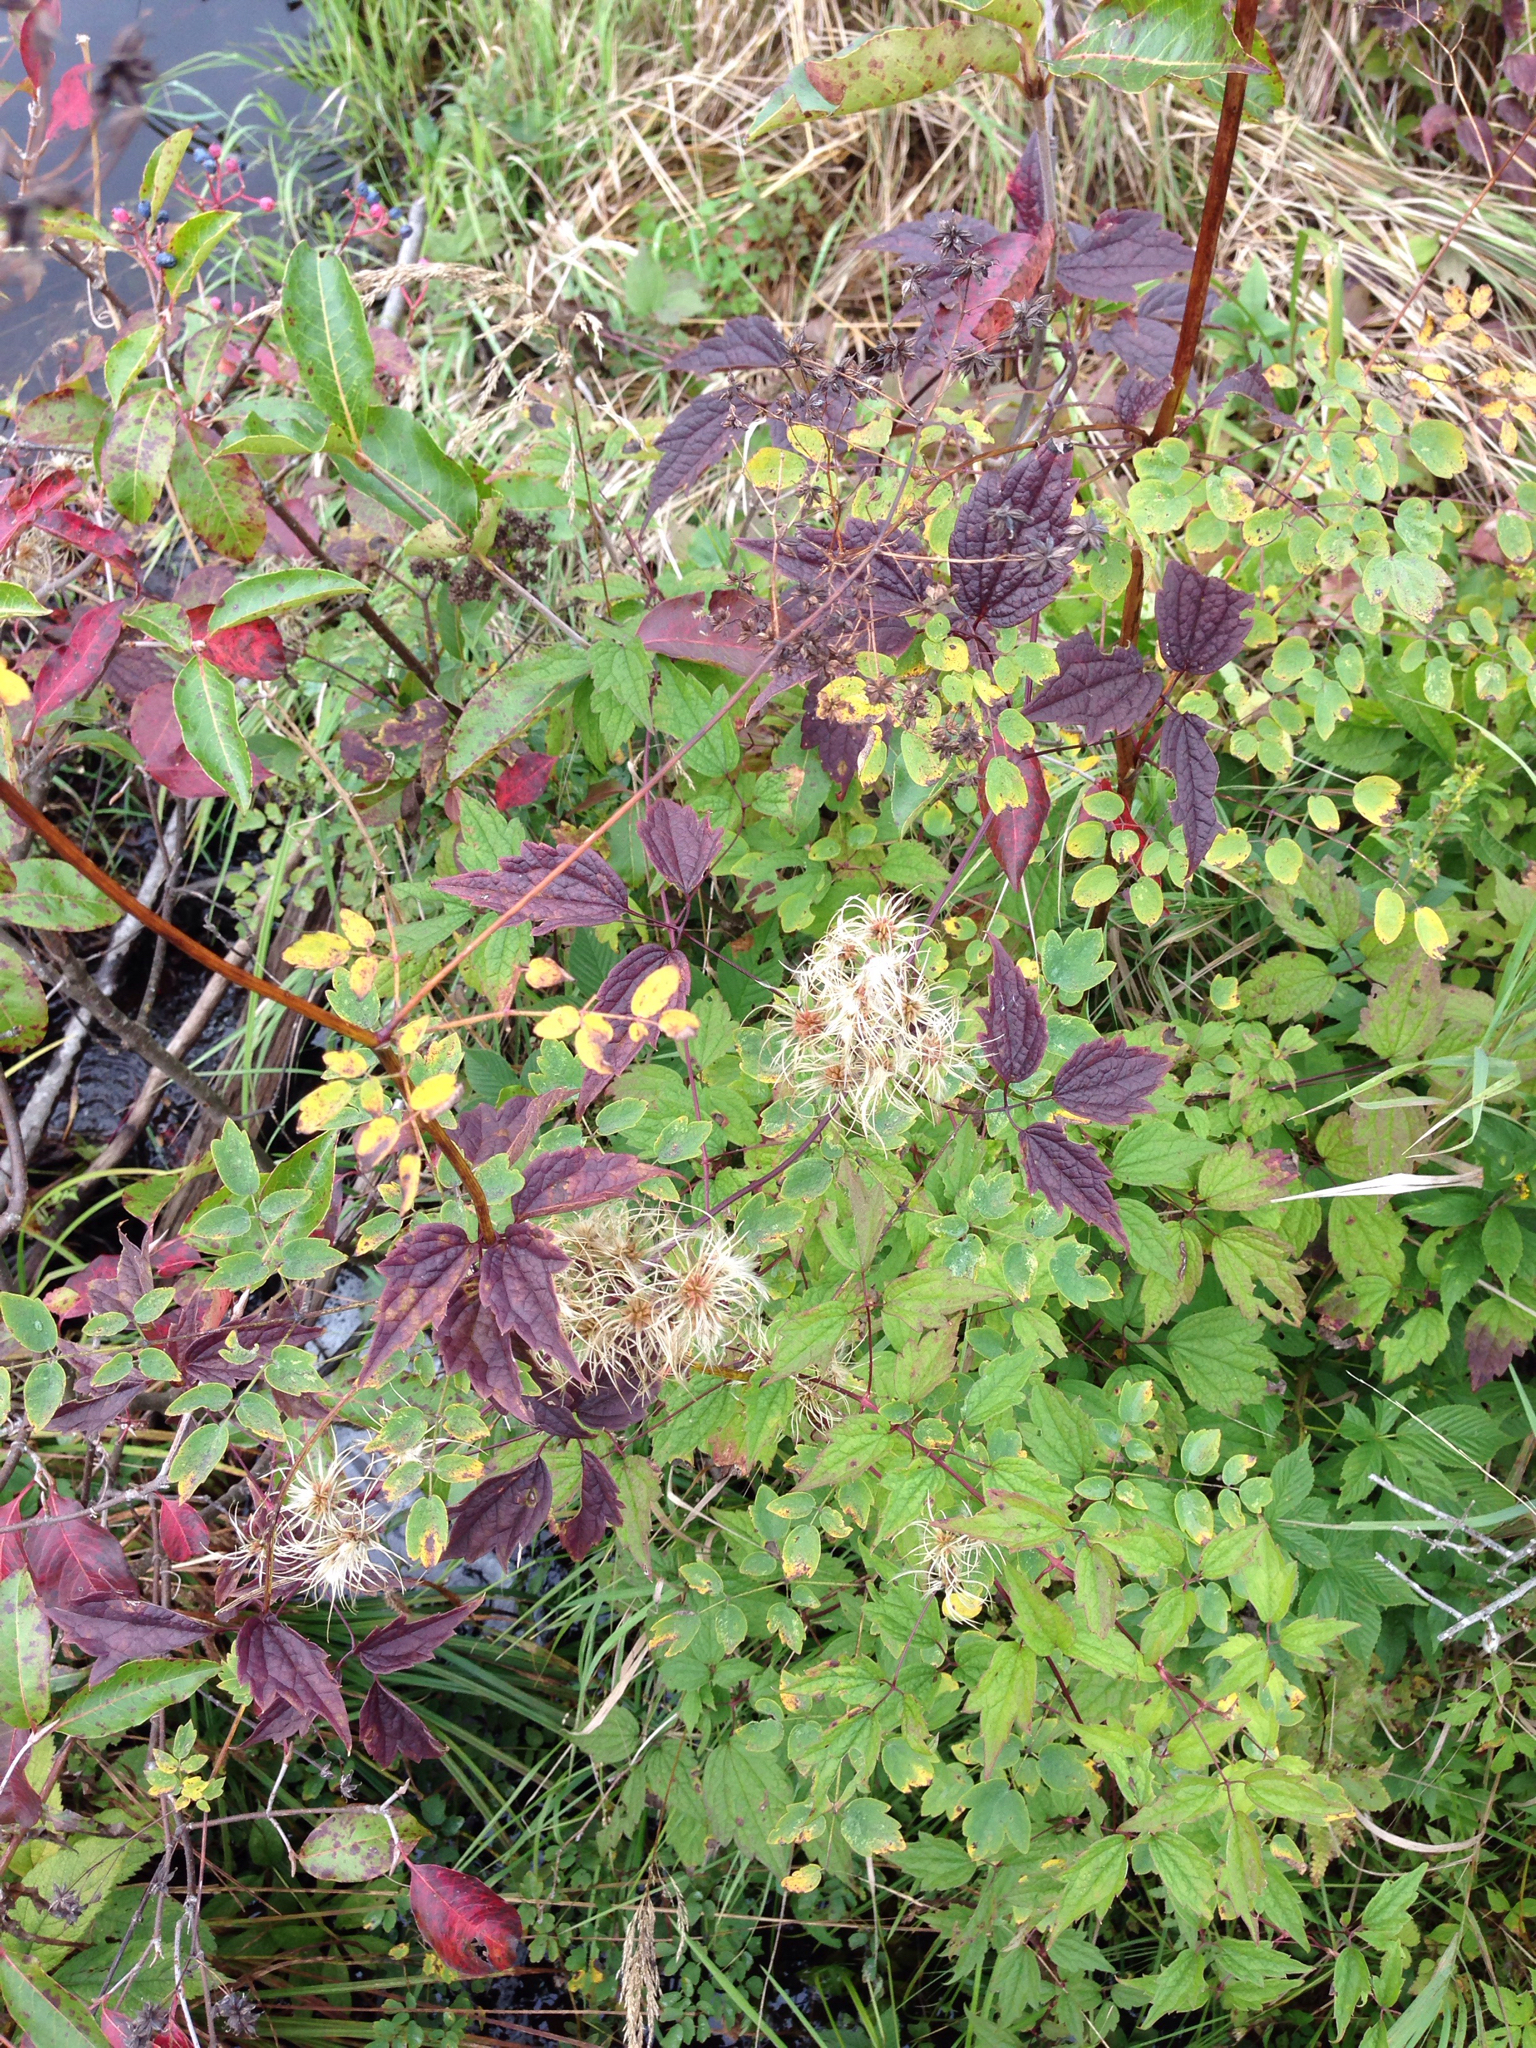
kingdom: Plantae
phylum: Tracheophyta
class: Magnoliopsida
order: Ranunculales
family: Ranunculaceae
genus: Clematis
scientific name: Clematis virginiana
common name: Virgin's-bower
